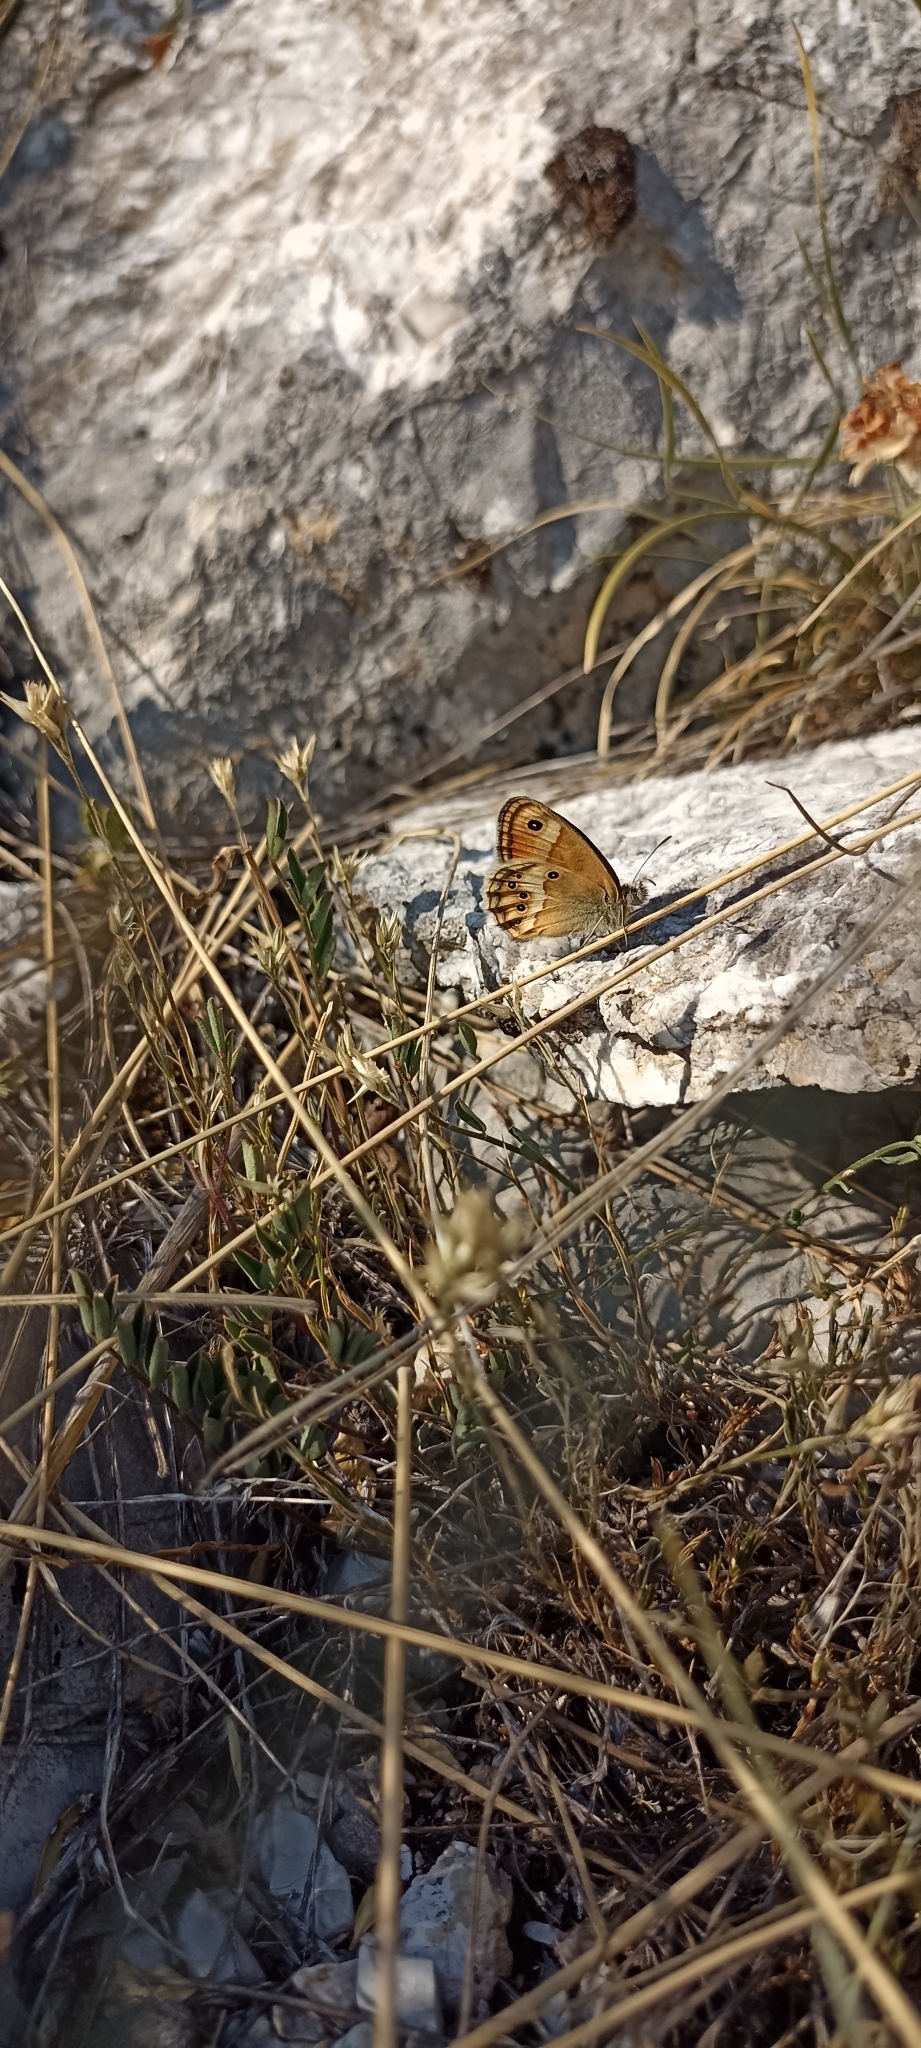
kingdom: Animalia
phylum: Arthropoda
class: Insecta
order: Lepidoptera
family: Nymphalidae
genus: Coenonympha
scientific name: Coenonympha dorus
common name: Dusky heath
